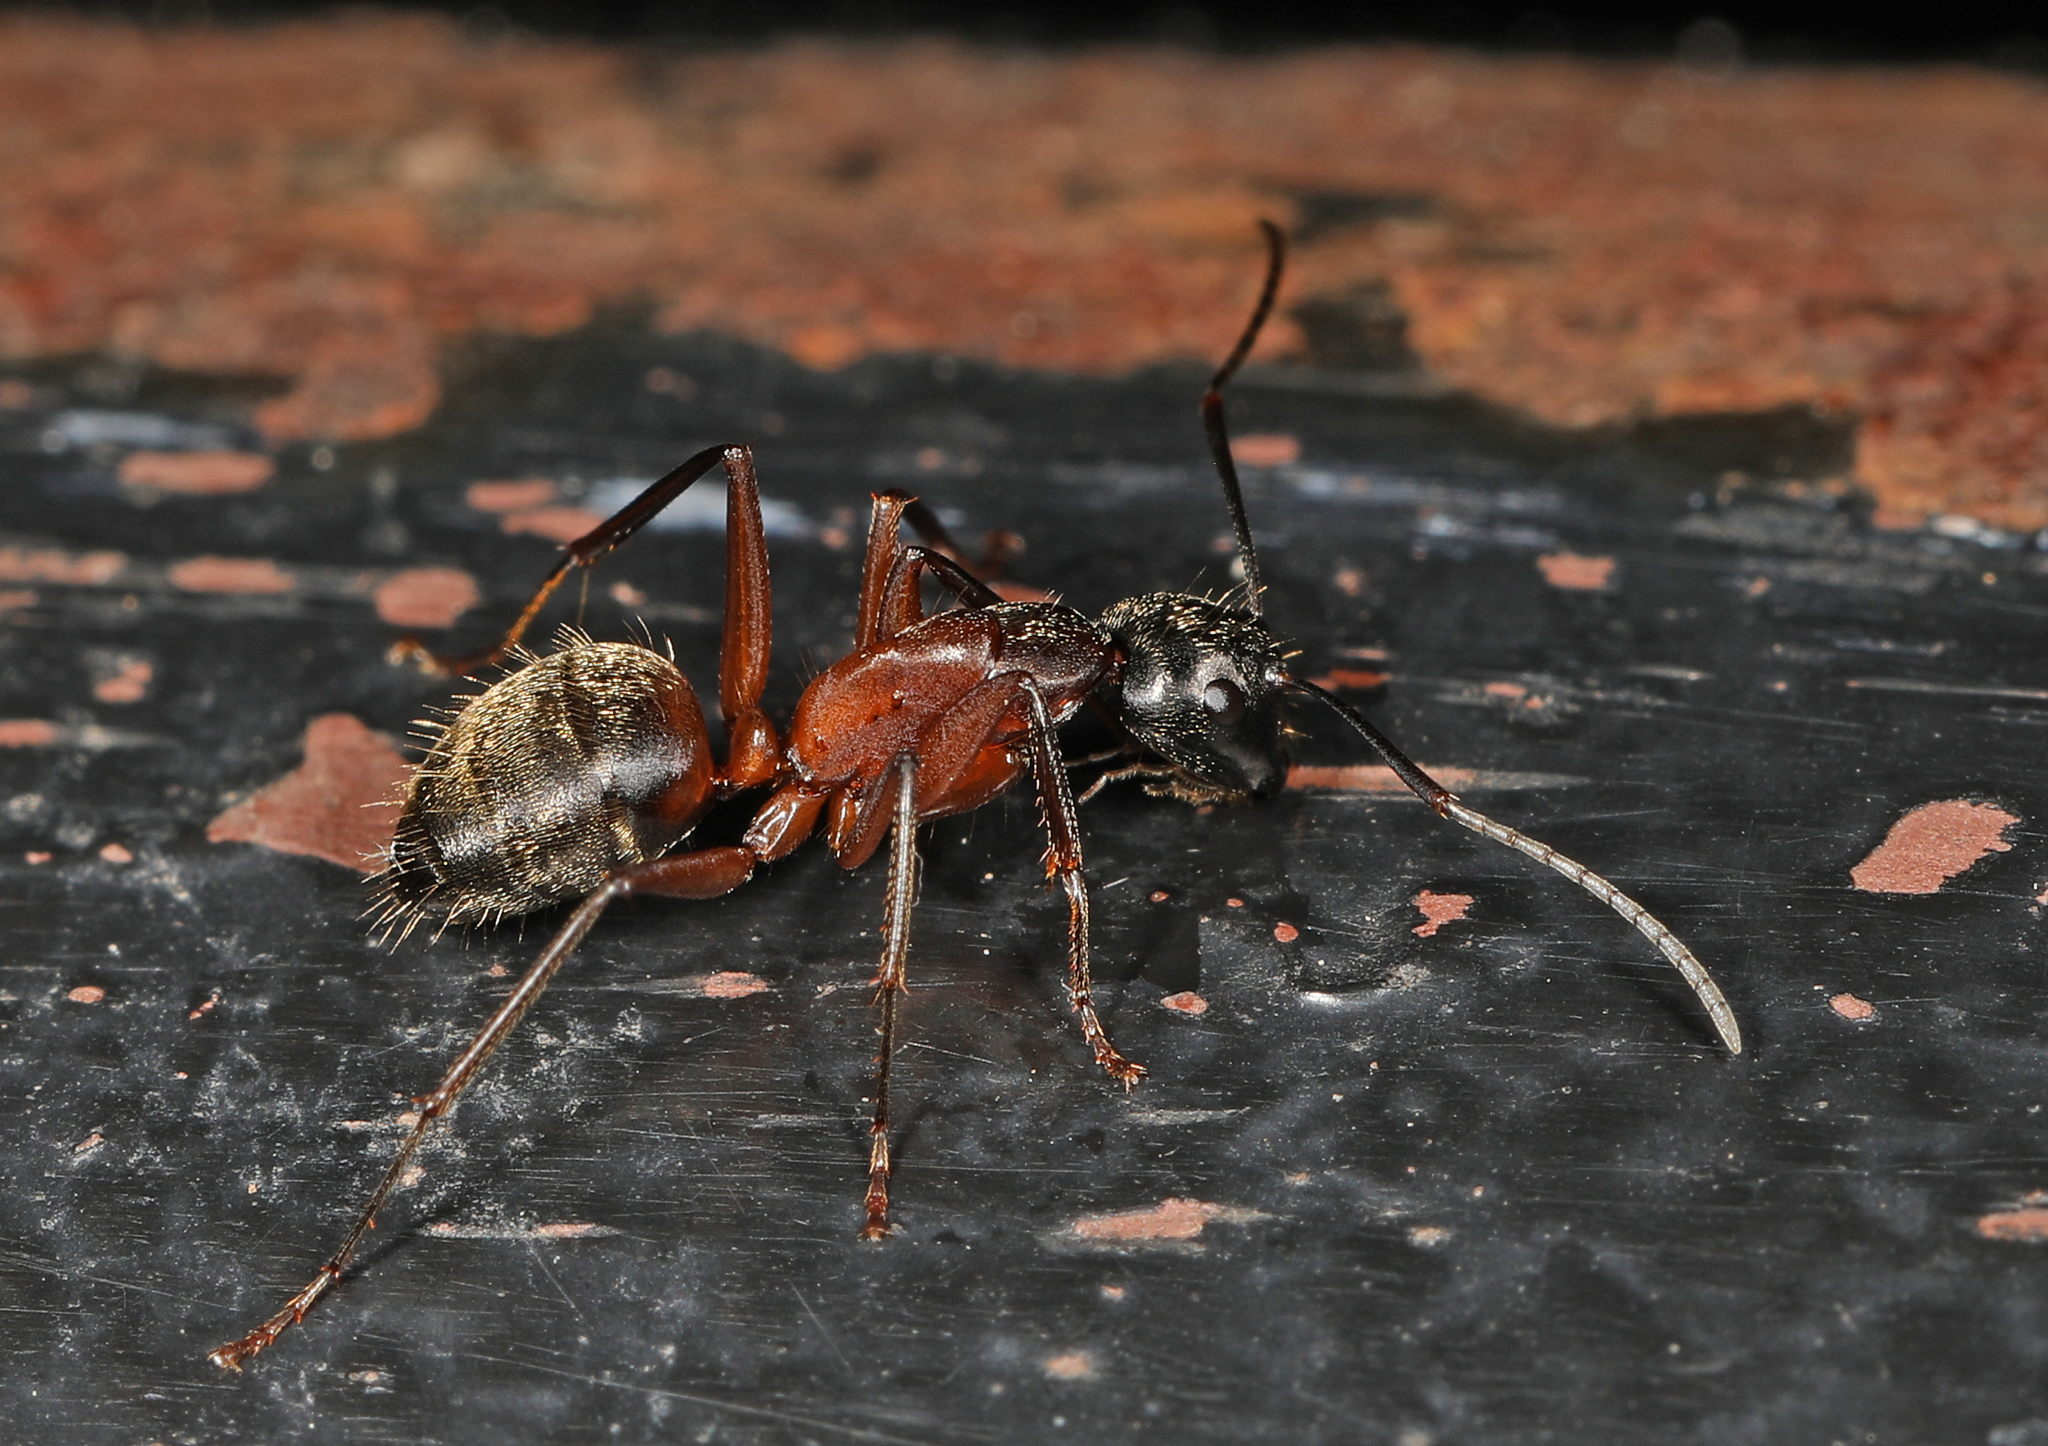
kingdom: Animalia
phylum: Arthropoda
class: Insecta
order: Hymenoptera
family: Formicidae
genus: Camponotus
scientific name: Camponotus chromaiodes
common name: Red carpenter ant
